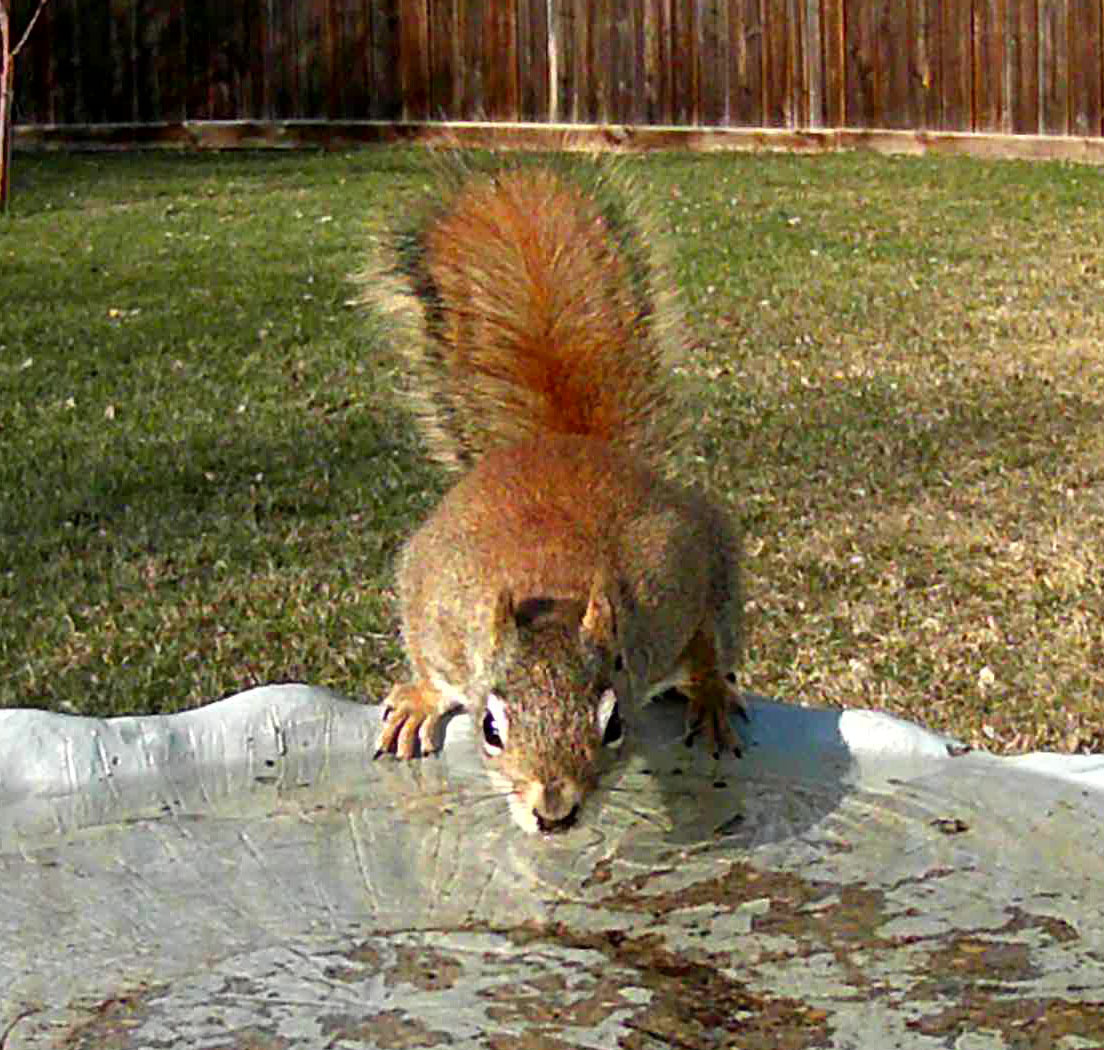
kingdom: Animalia
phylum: Chordata
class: Mammalia
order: Rodentia
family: Sciuridae
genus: Tamiasciurus
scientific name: Tamiasciurus hudsonicus
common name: Red squirrel
